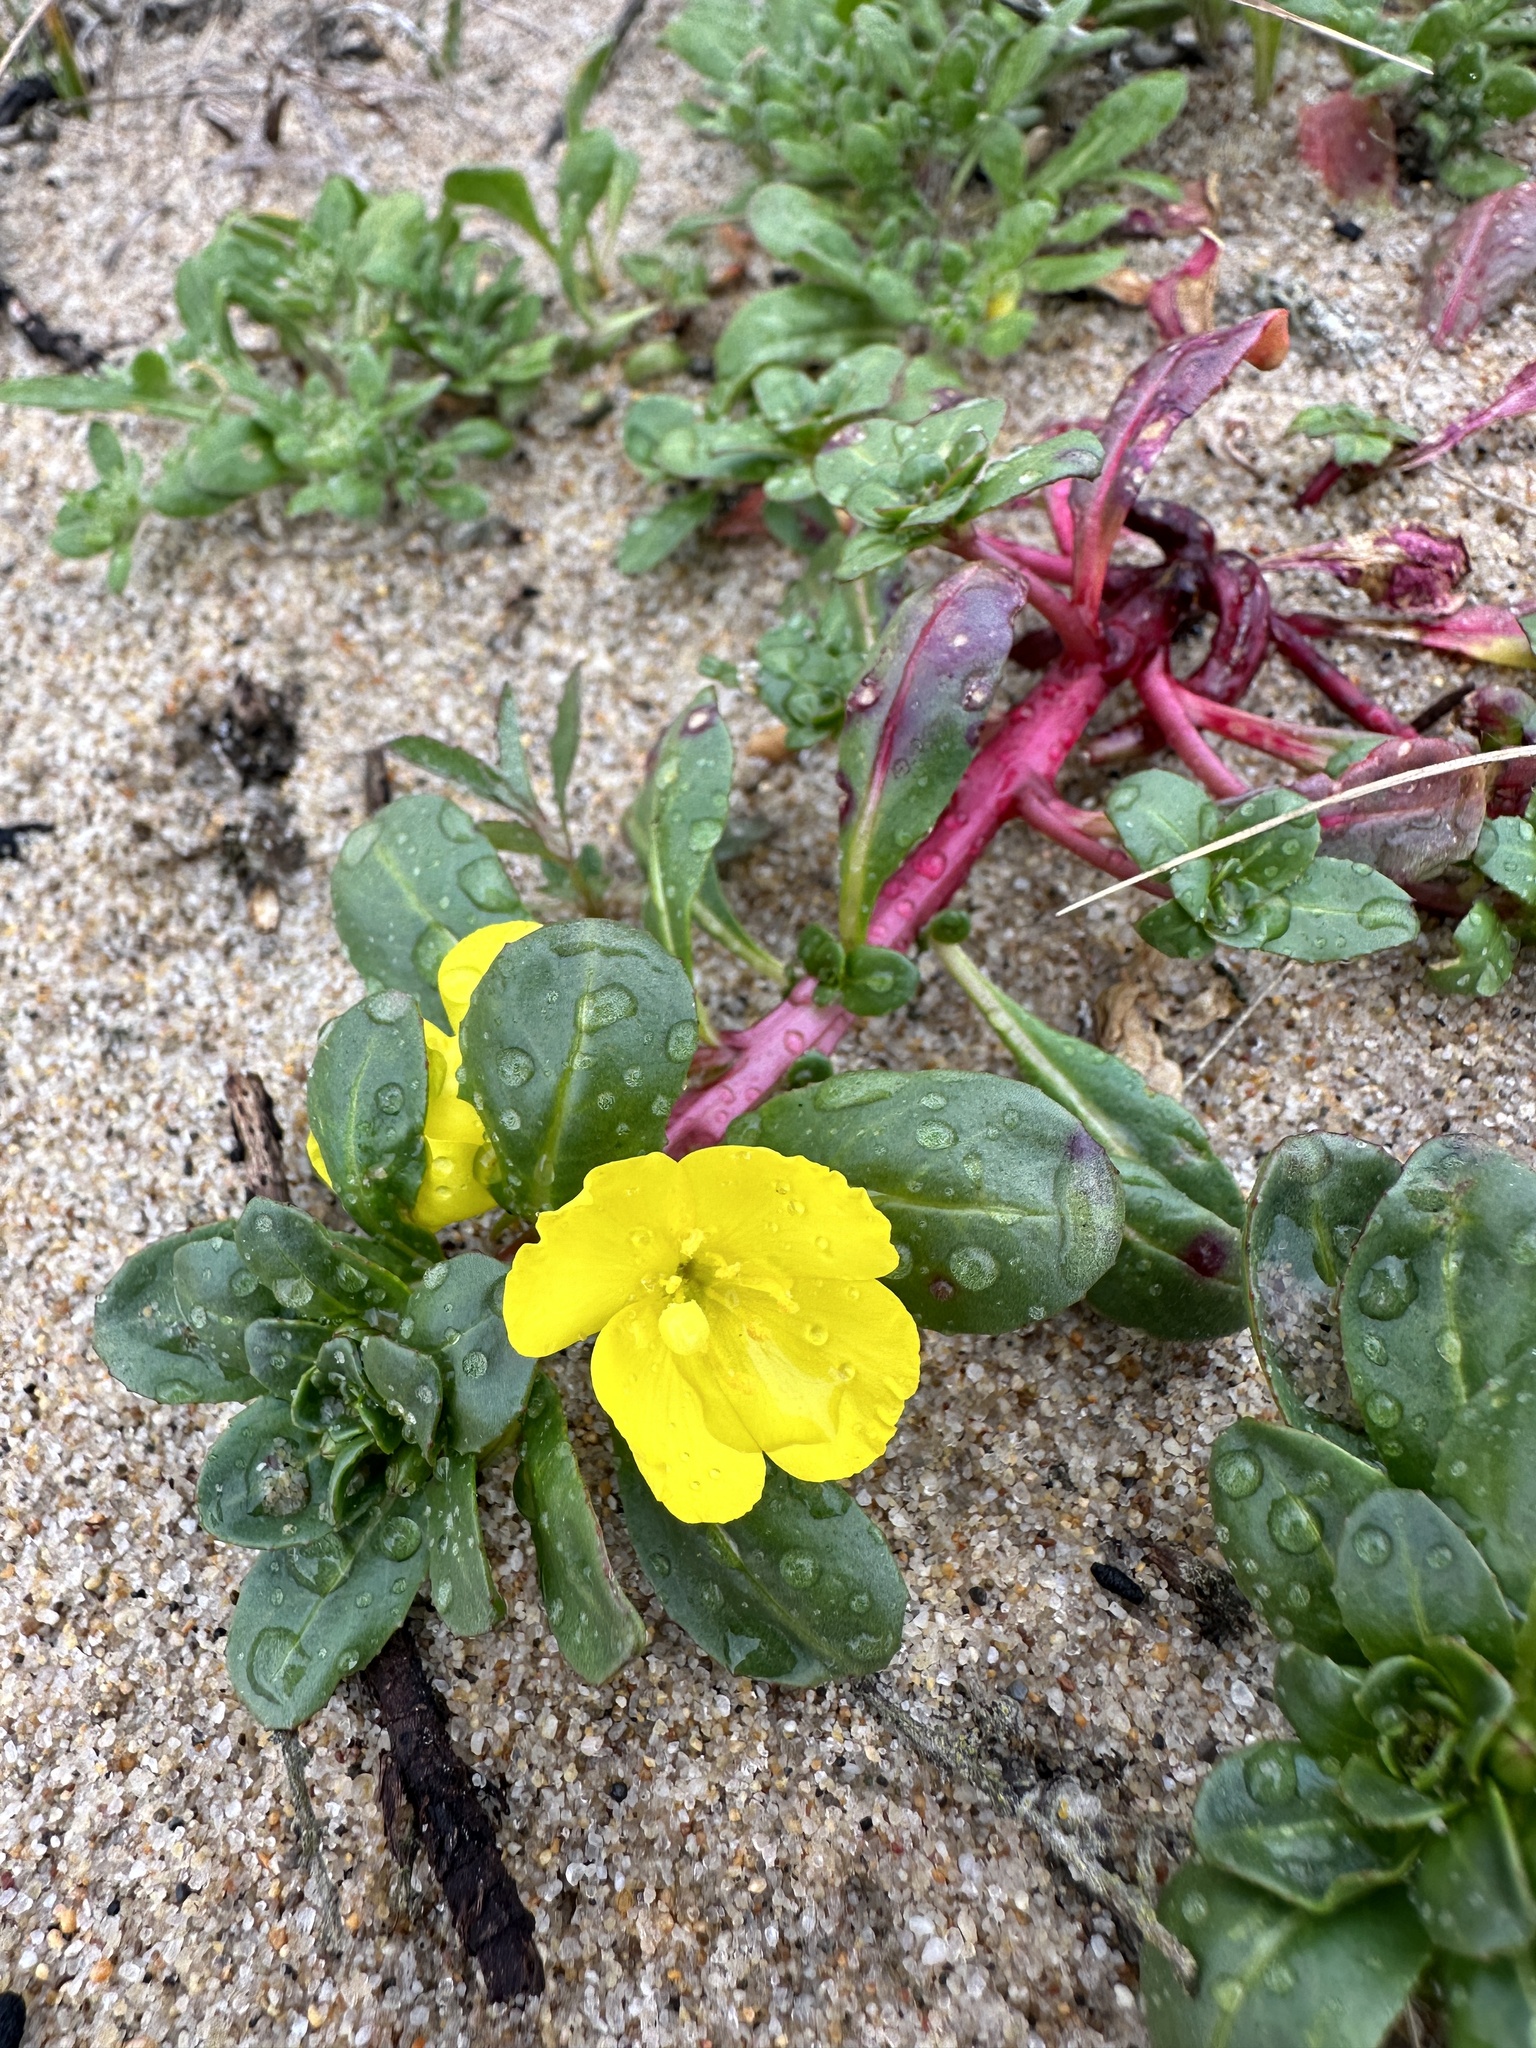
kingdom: Plantae
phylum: Tracheophyta
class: Magnoliopsida
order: Myrtales
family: Onagraceae
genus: Camissoniopsis
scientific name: Camissoniopsis cheiranthifolia
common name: Beach suncup
